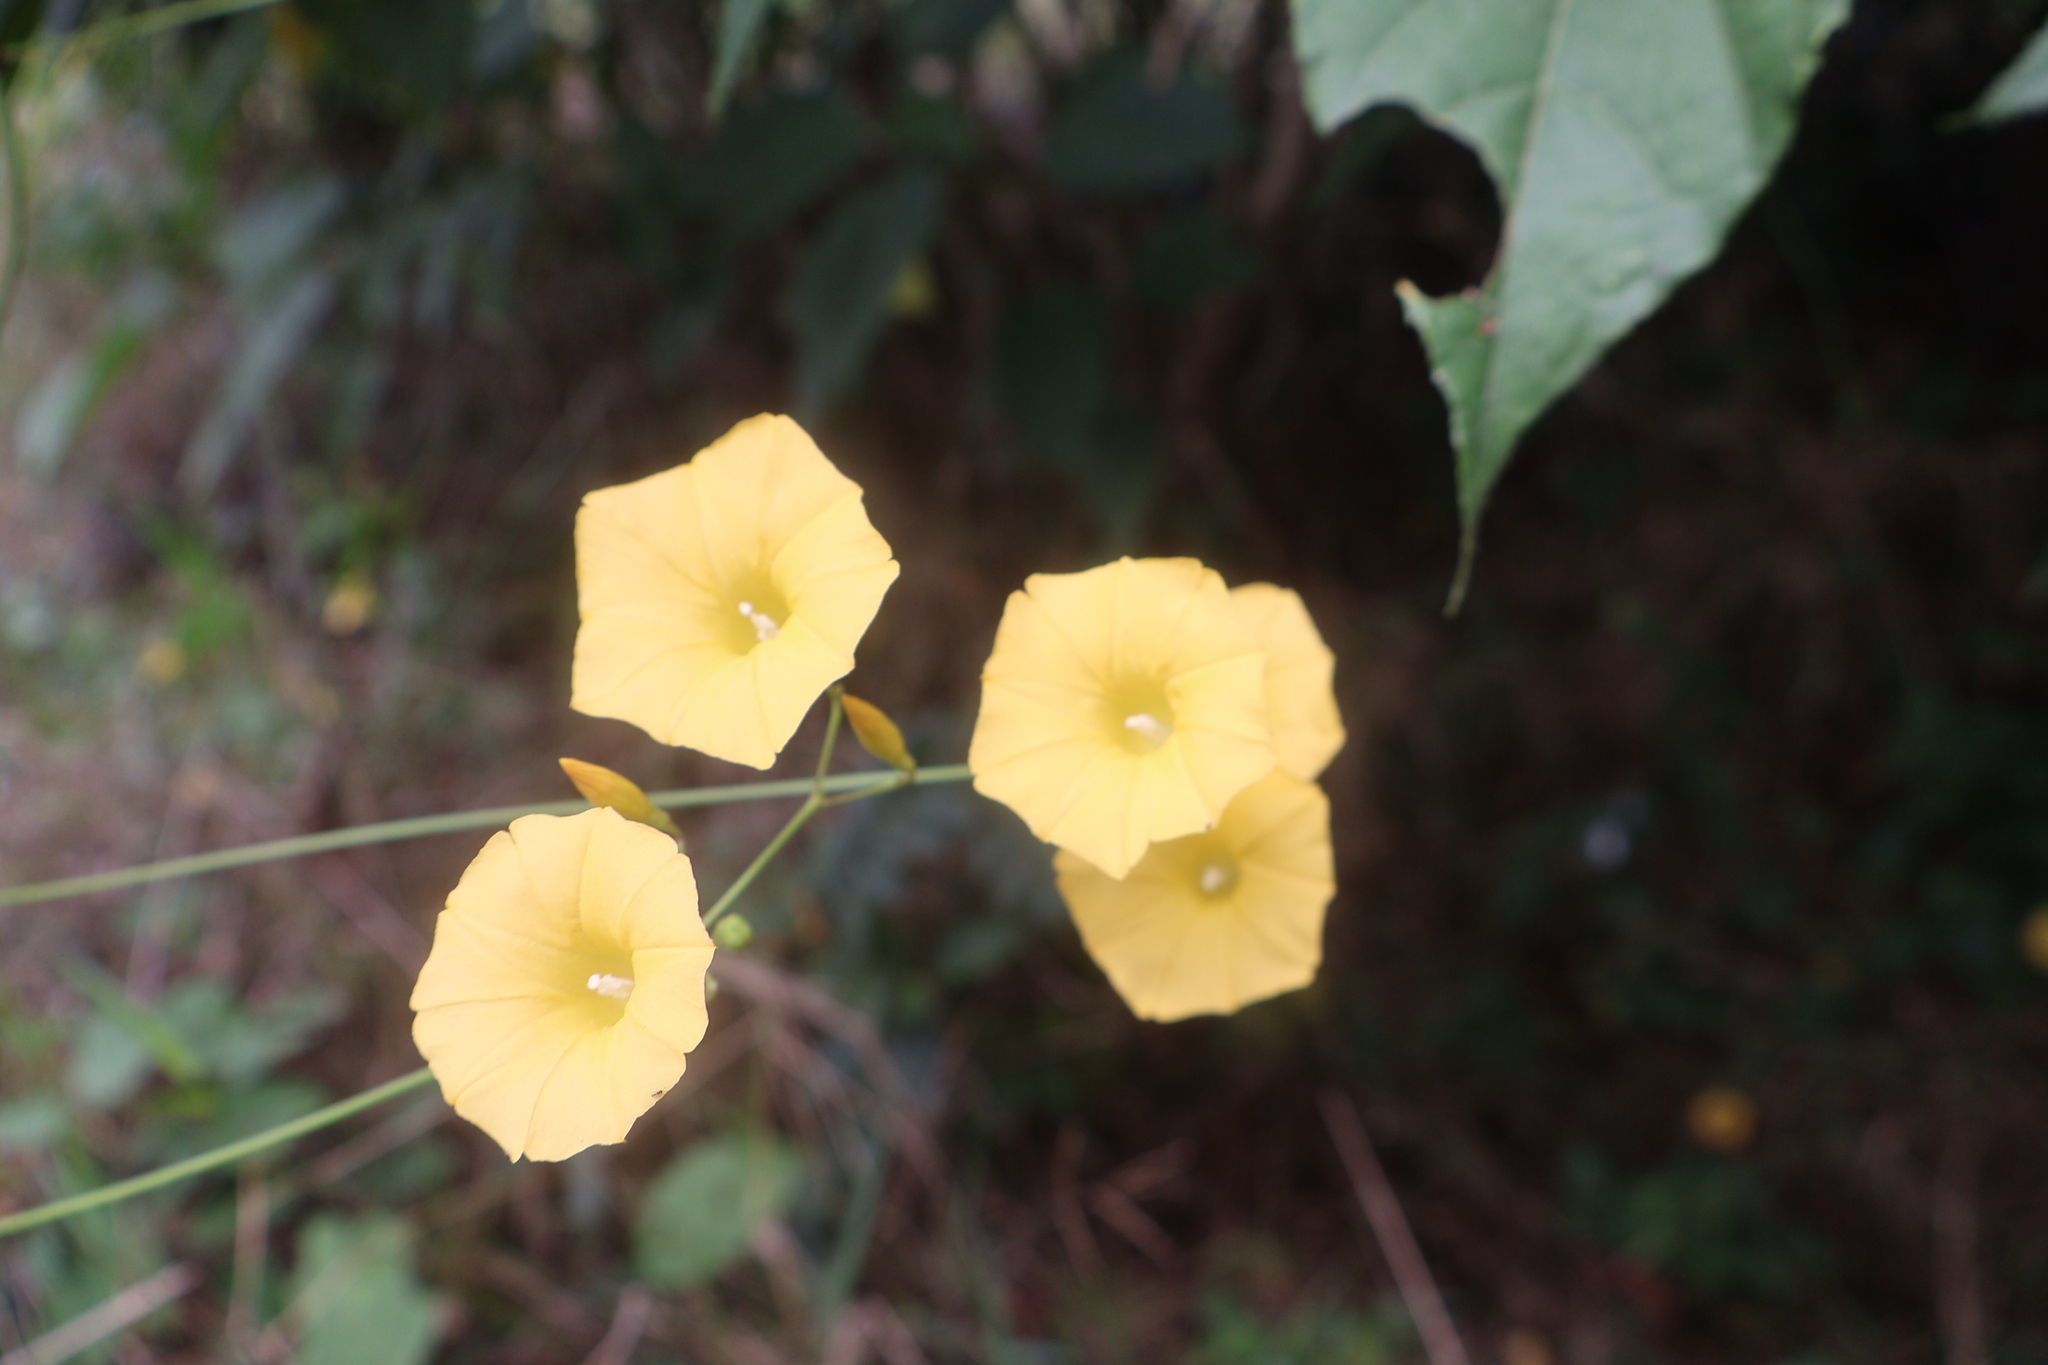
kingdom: Plantae
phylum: Tracheophyta
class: Magnoliopsida
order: Solanales
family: Convolvulaceae
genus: Ipomoea
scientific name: Ipomoea microsepala
